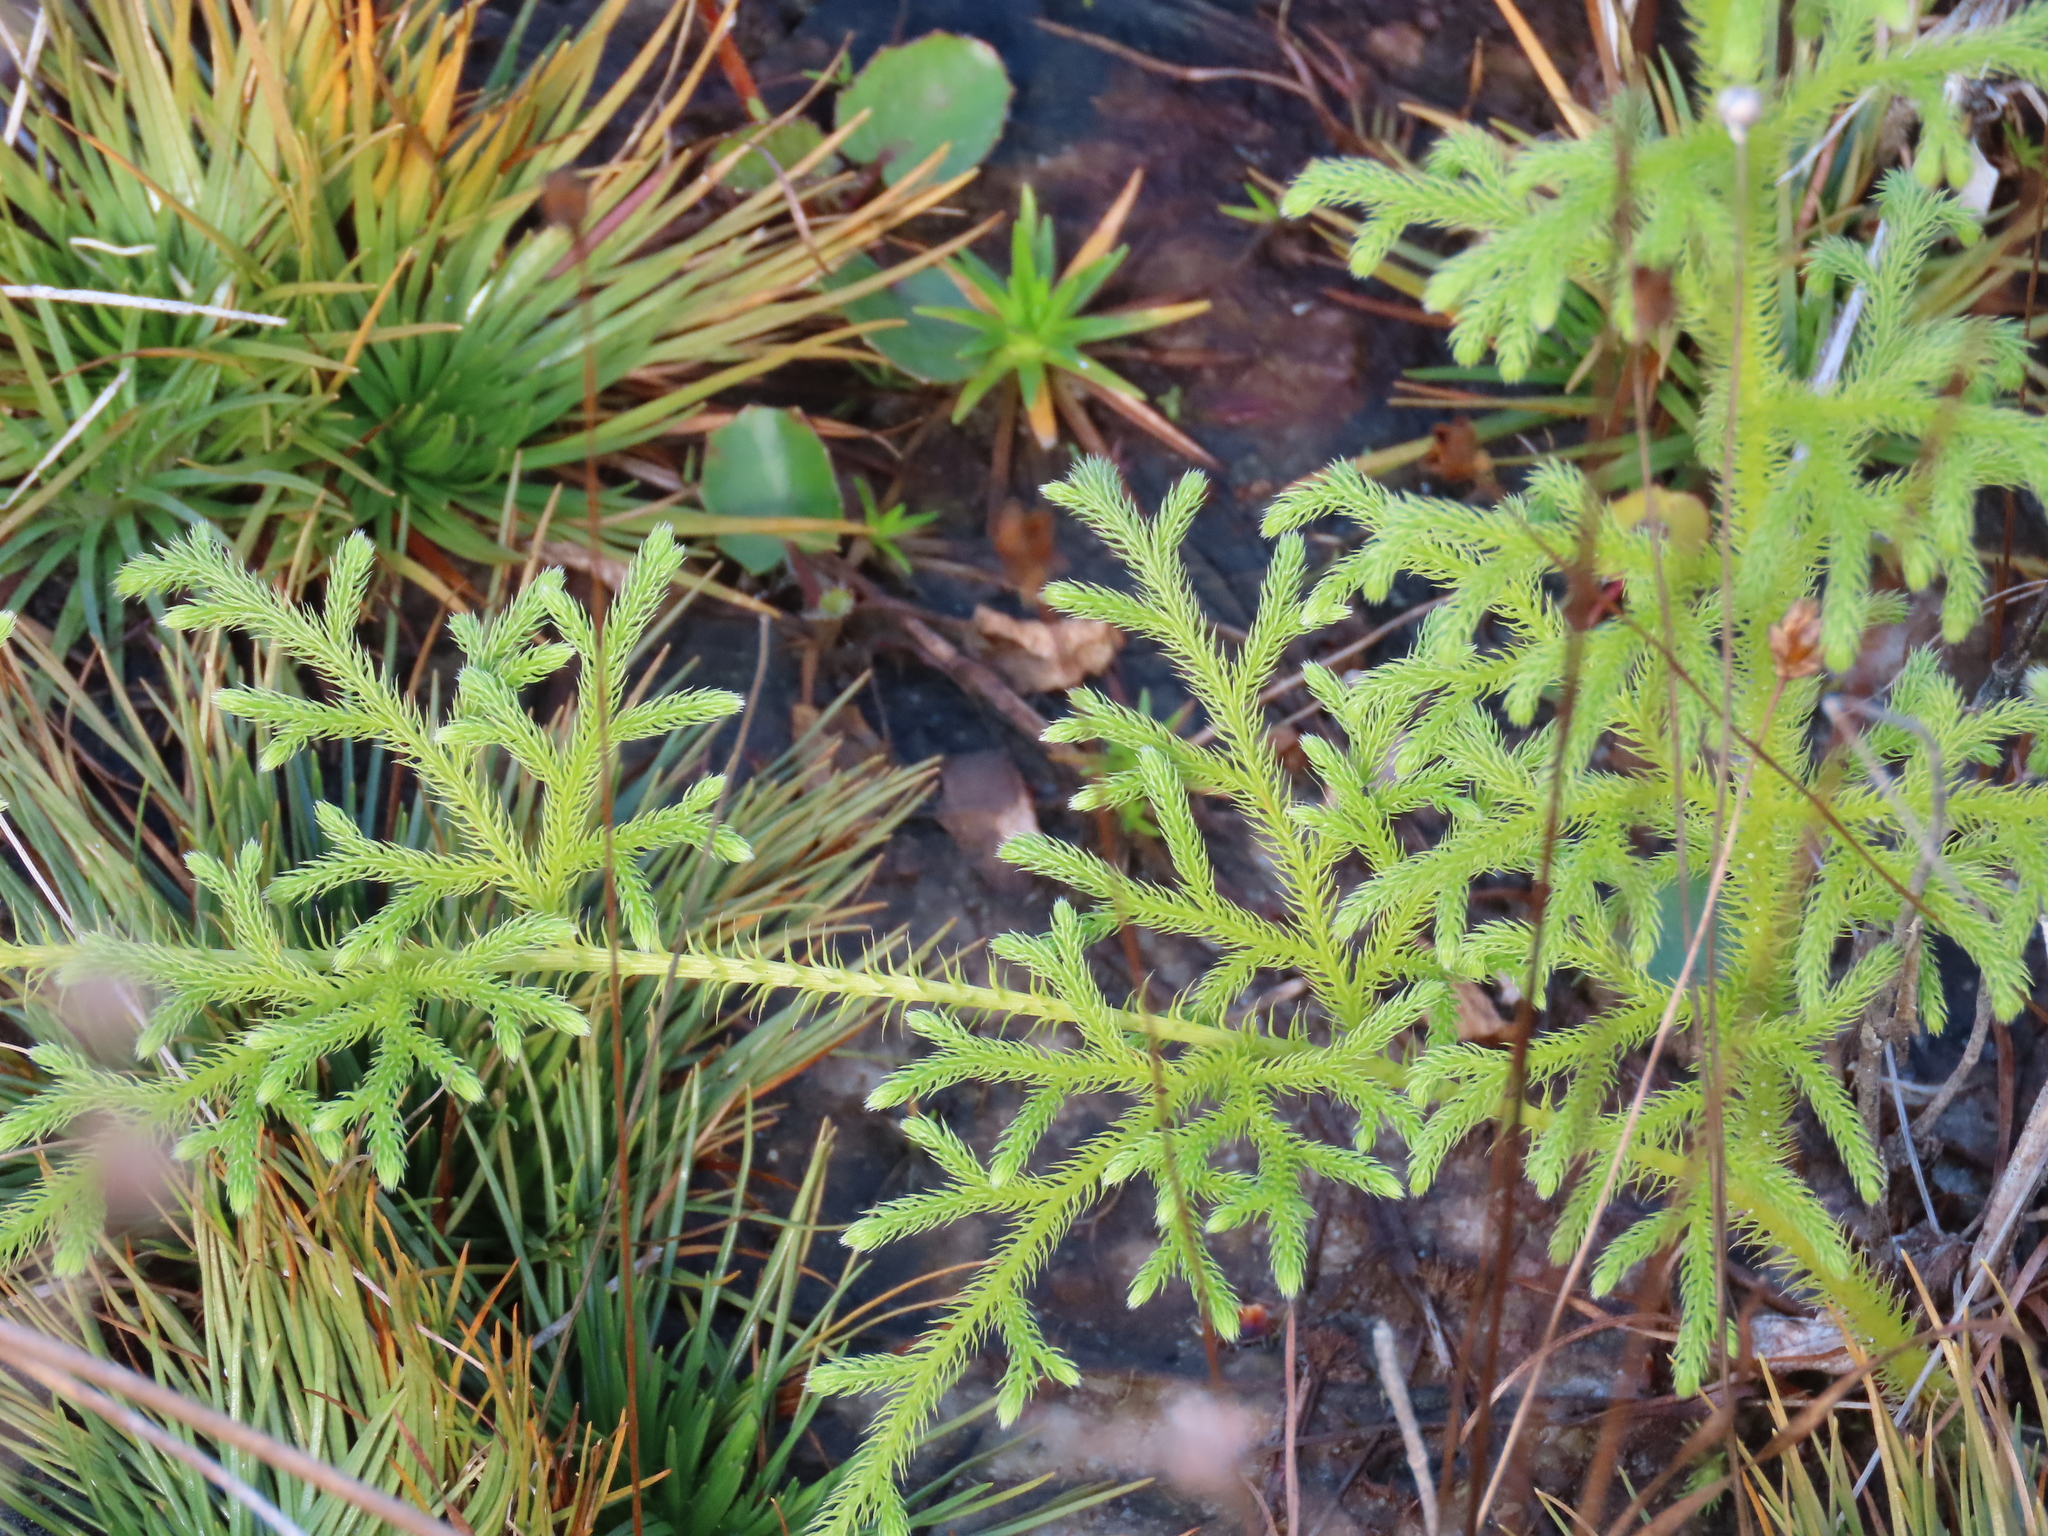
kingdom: Plantae
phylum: Tracheophyta
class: Lycopodiopsida
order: Lycopodiales
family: Lycopodiaceae
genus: Palhinhaea
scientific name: Palhinhaea cernua
